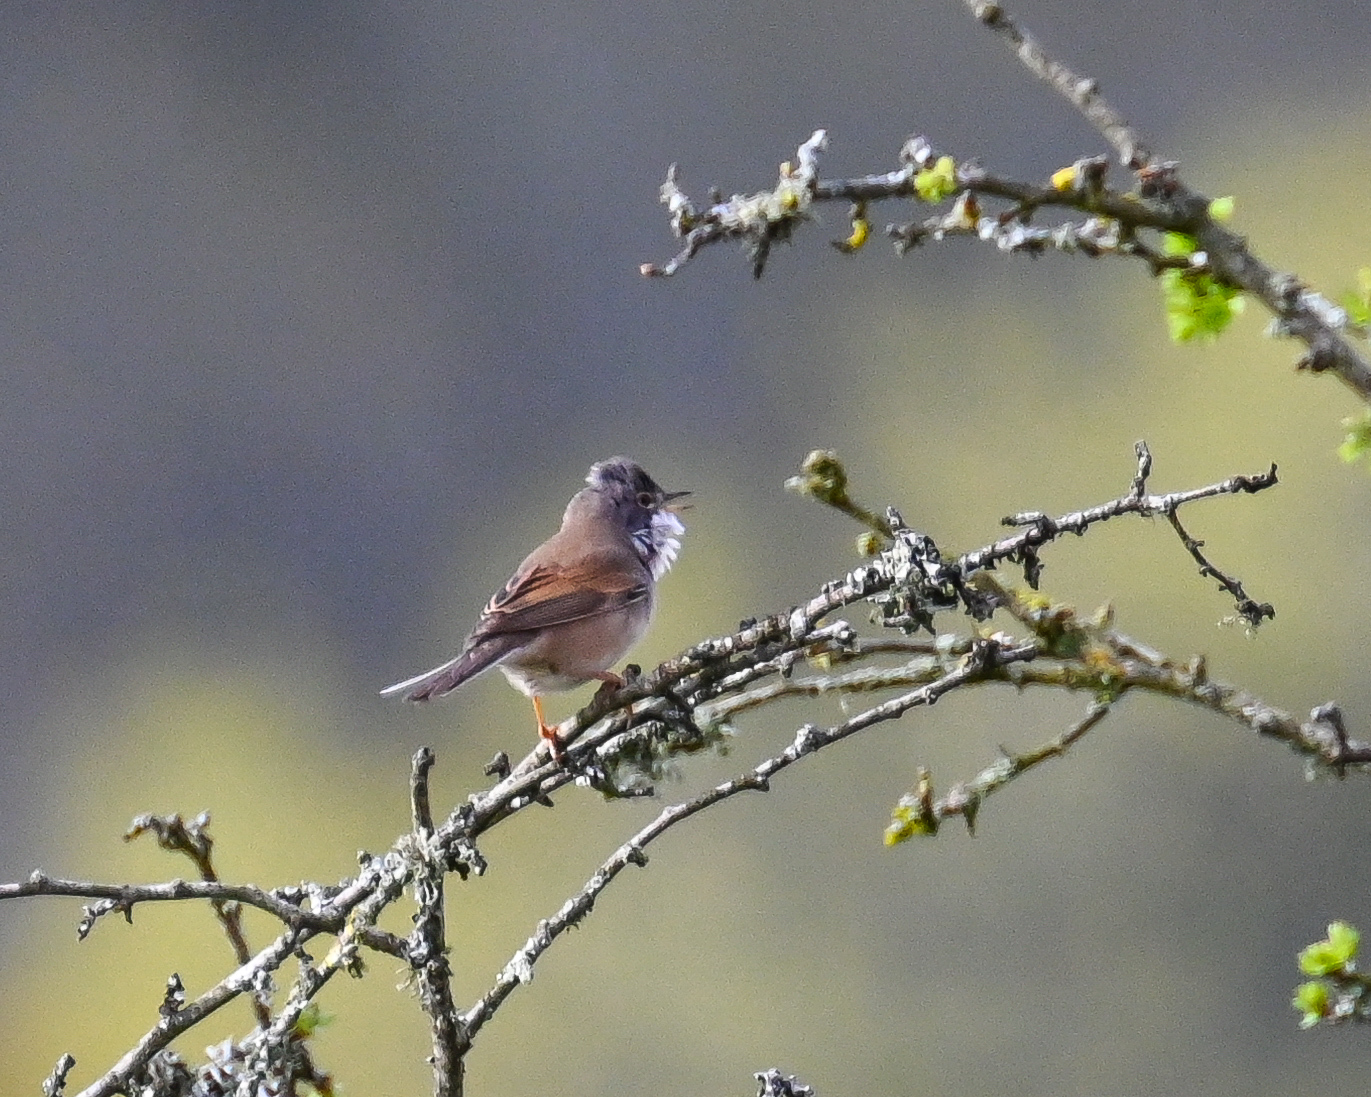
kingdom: Animalia
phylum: Chordata
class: Aves
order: Passeriformes
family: Sylviidae
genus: Sylvia
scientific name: Sylvia communis
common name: Common whitethroat
